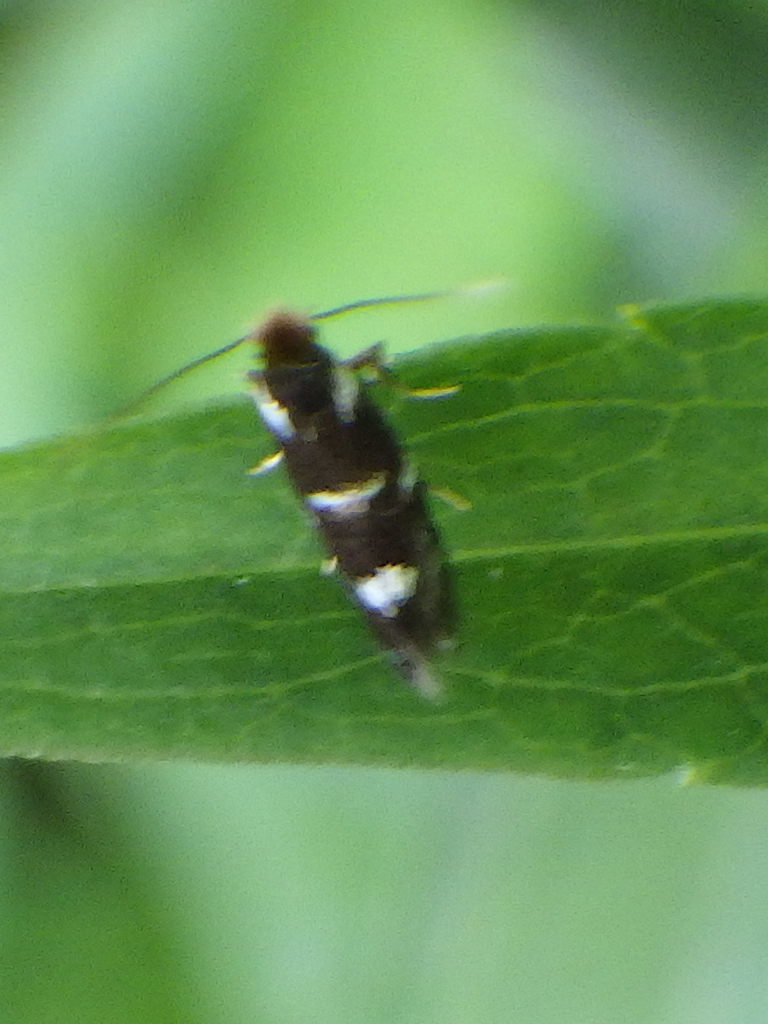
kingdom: Animalia
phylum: Arthropoda
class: Insecta
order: Lepidoptera
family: Bucculatricidae
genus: Bucculatrix
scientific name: Bucculatrix sexnotata
